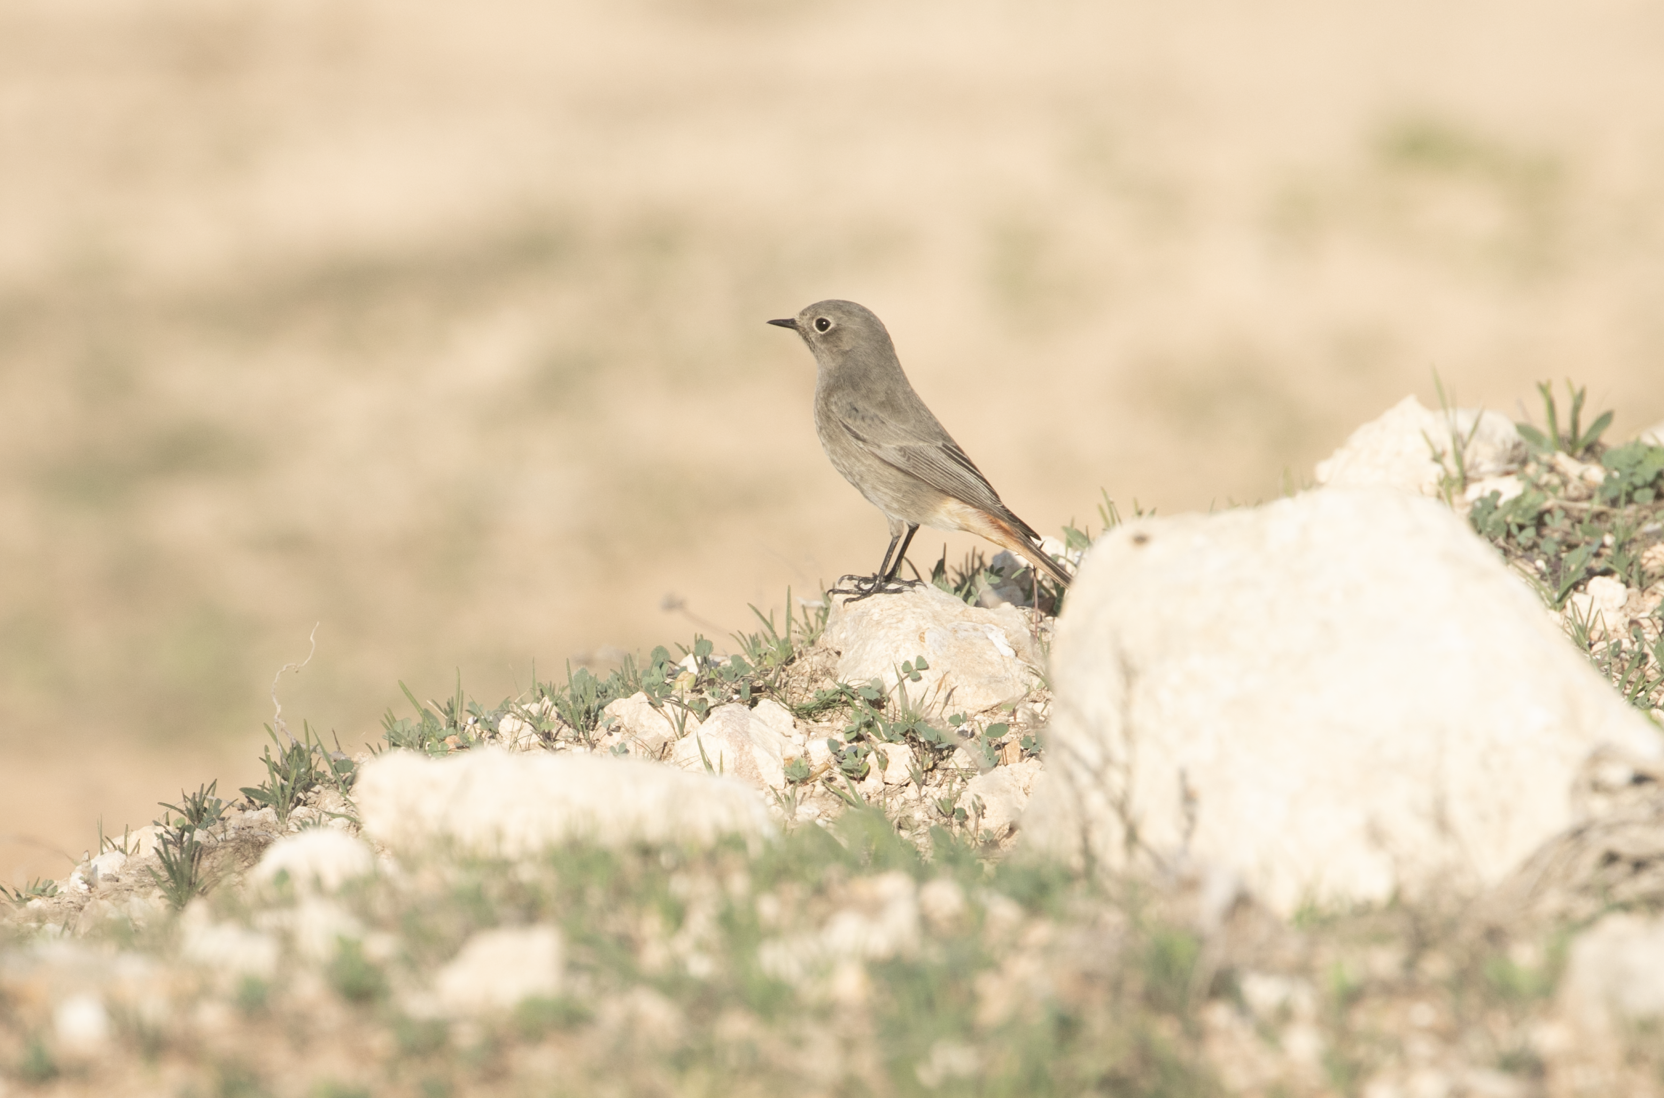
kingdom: Animalia
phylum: Chordata
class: Aves
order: Passeriformes
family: Muscicapidae
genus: Phoenicurus
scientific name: Phoenicurus ochruros
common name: Black redstart
